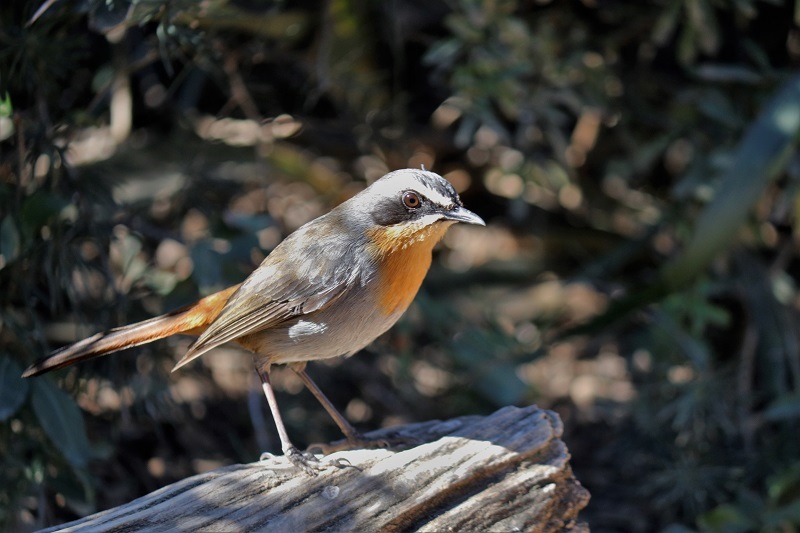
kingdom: Animalia
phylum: Chordata
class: Aves
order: Passeriformes
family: Muscicapidae
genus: Cossypha
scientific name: Cossypha caffra
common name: Cape robin-chat
